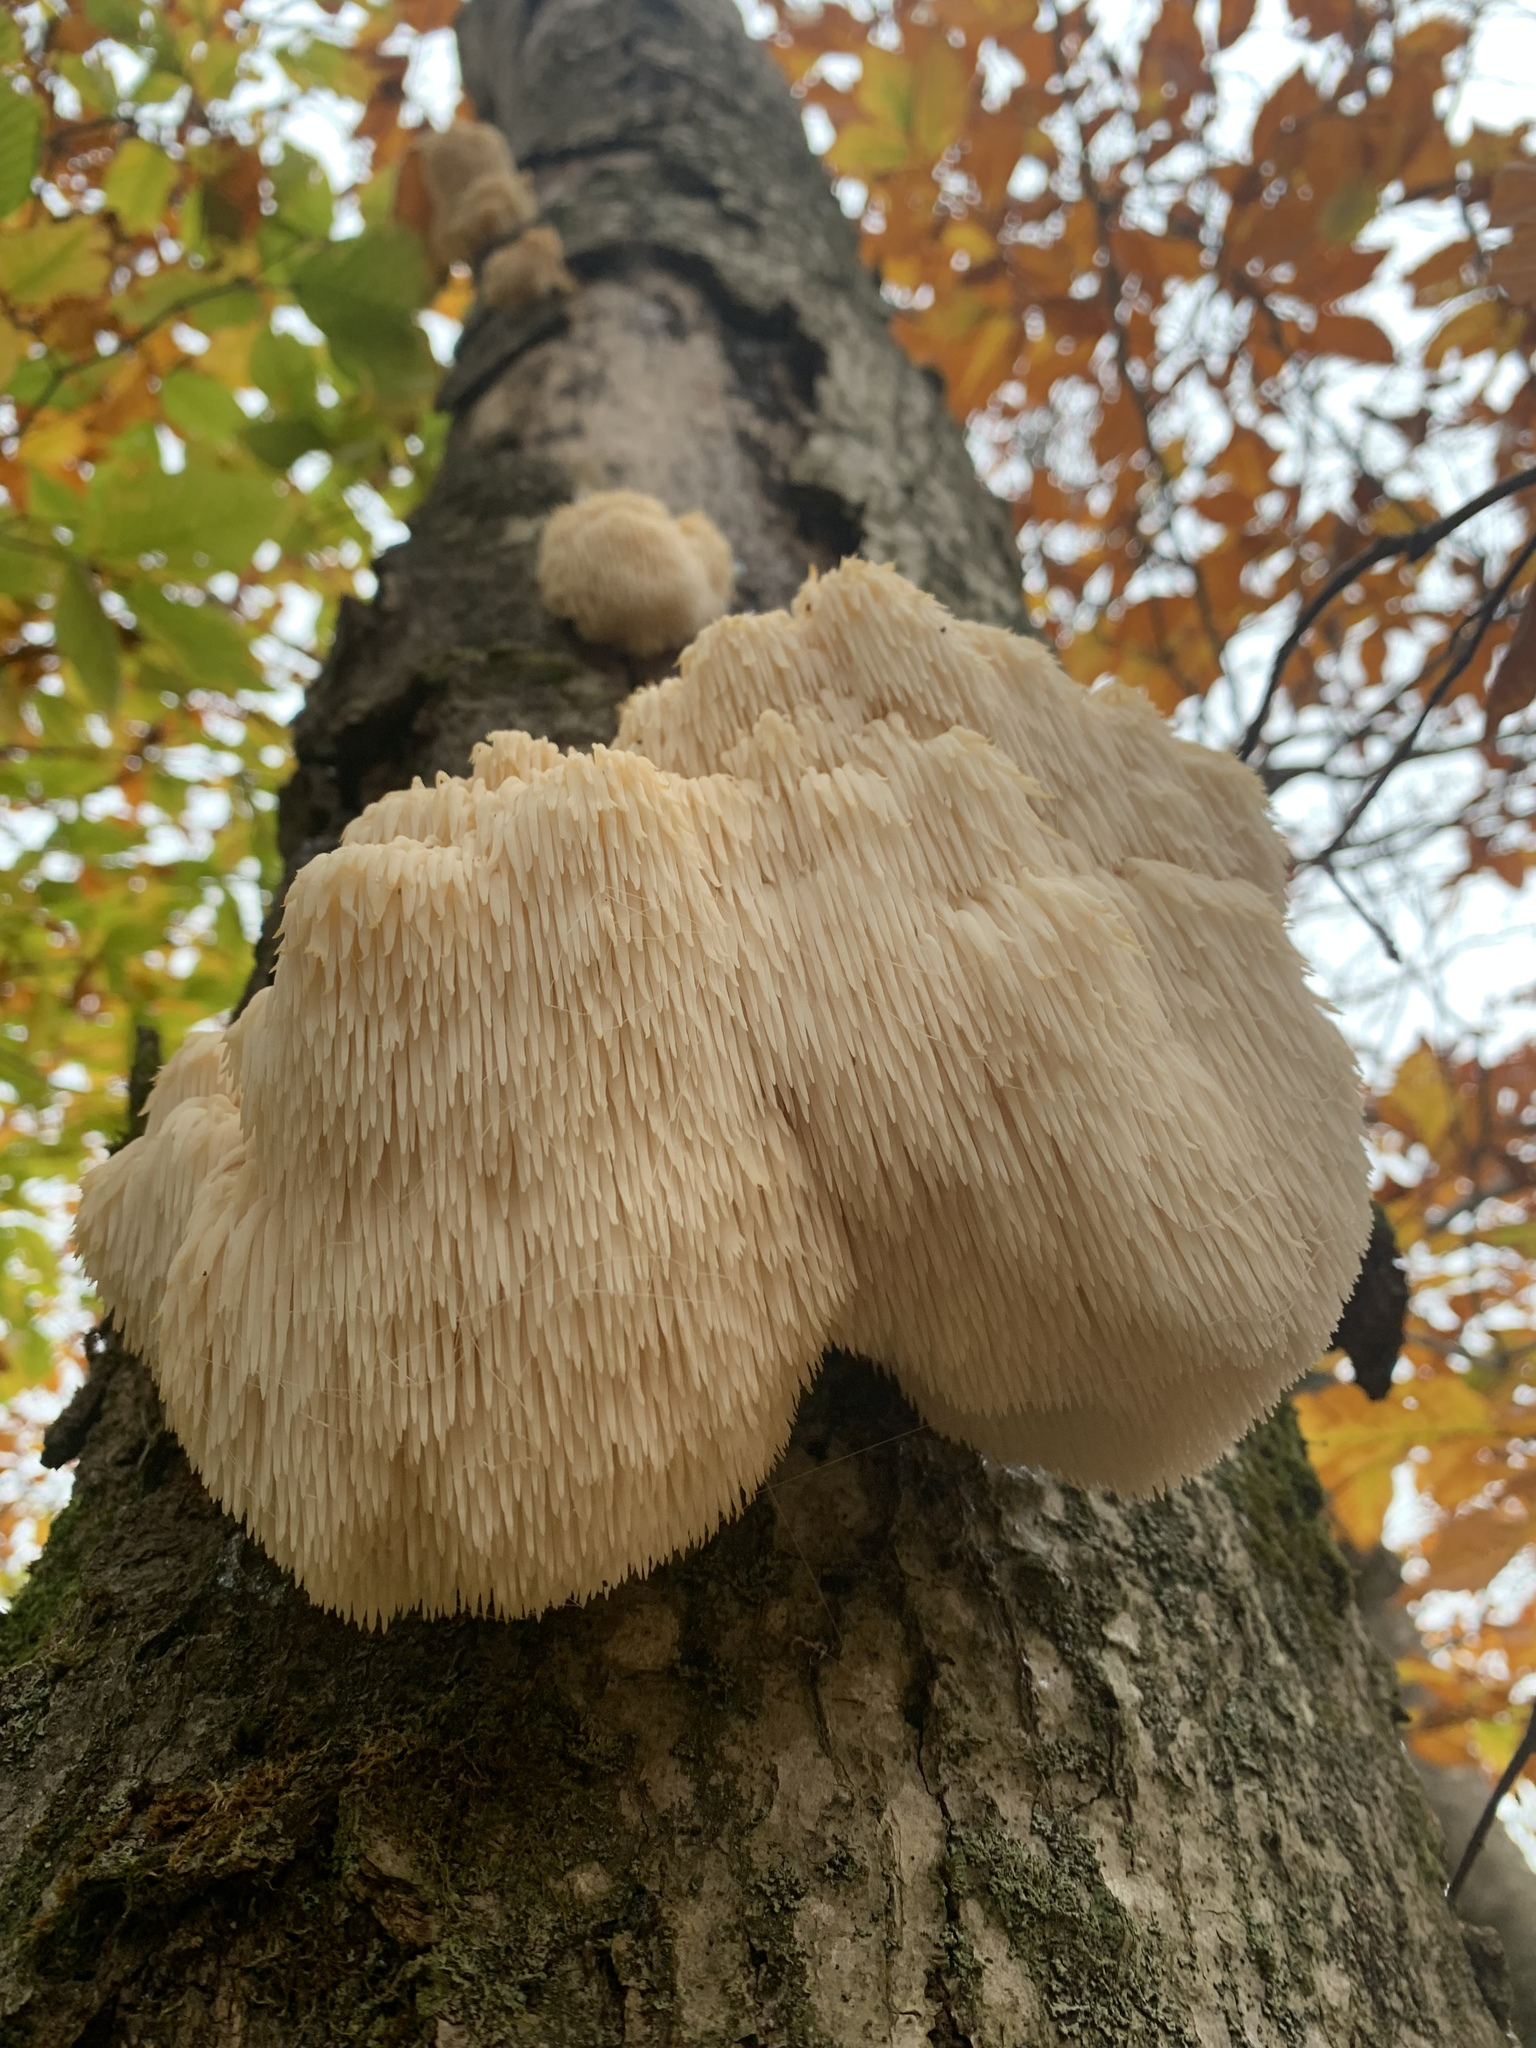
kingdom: Fungi
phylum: Basidiomycota
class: Agaricomycetes
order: Russulales
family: Hericiaceae
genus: Hericium
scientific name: Hericium americanum
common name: Bear's head tooth
